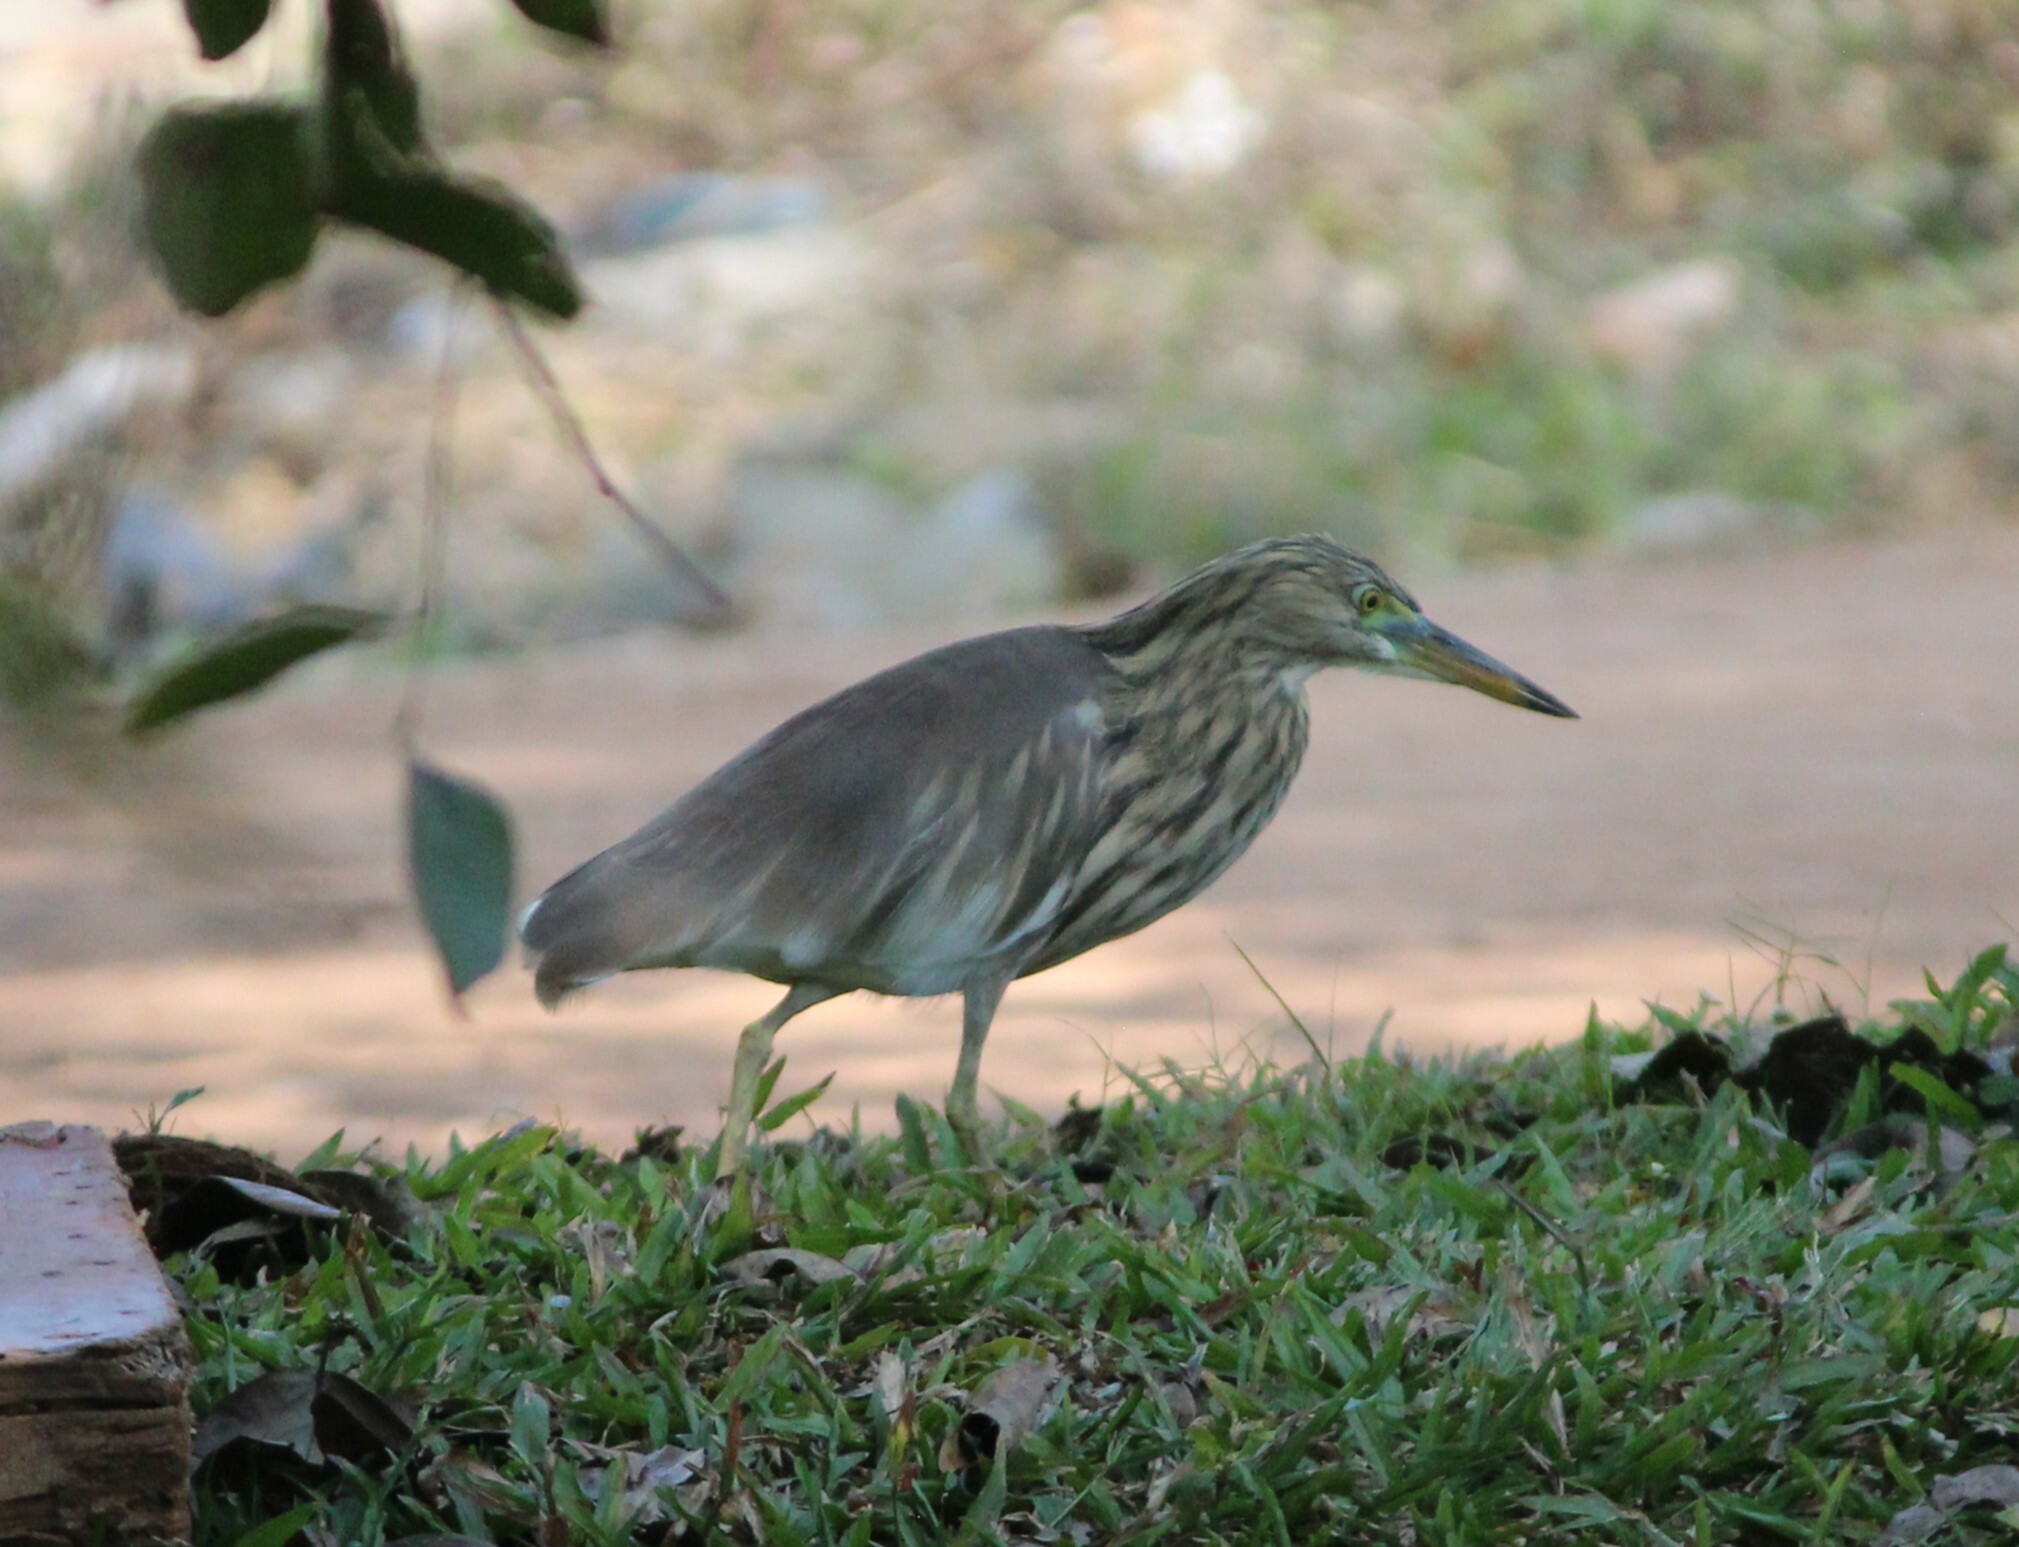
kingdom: Animalia
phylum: Chordata
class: Aves
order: Pelecaniformes
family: Ardeidae
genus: Ardeola
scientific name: Ardeola grayii
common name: Indian pond heron
